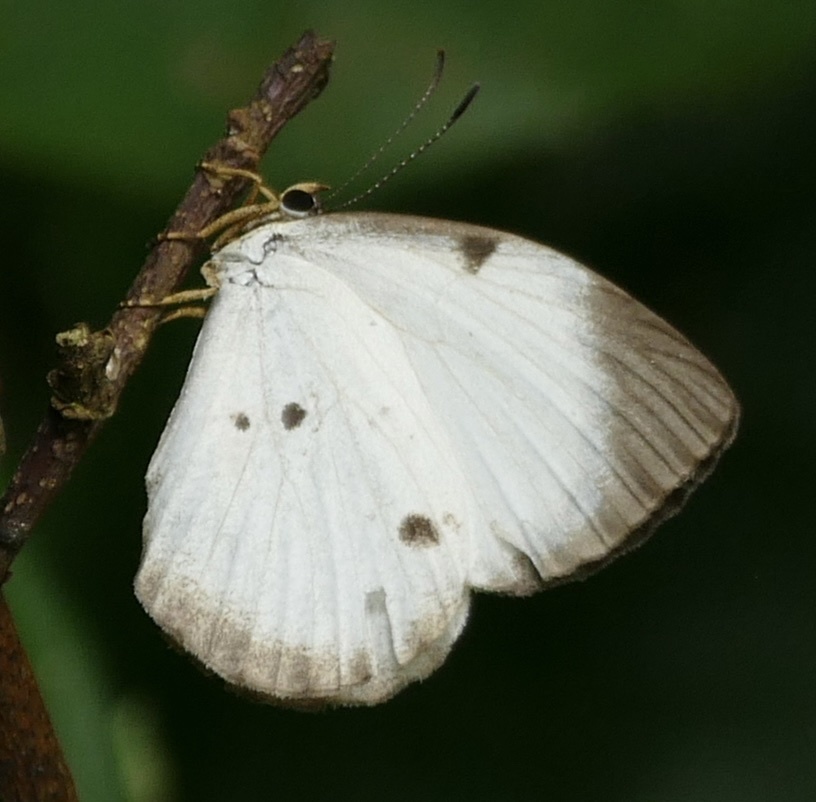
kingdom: Animalia
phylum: Arthropoda
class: Insecta
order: Lepidoptera
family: Lycaenidae
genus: Larinopoda
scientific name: Larinopoda
